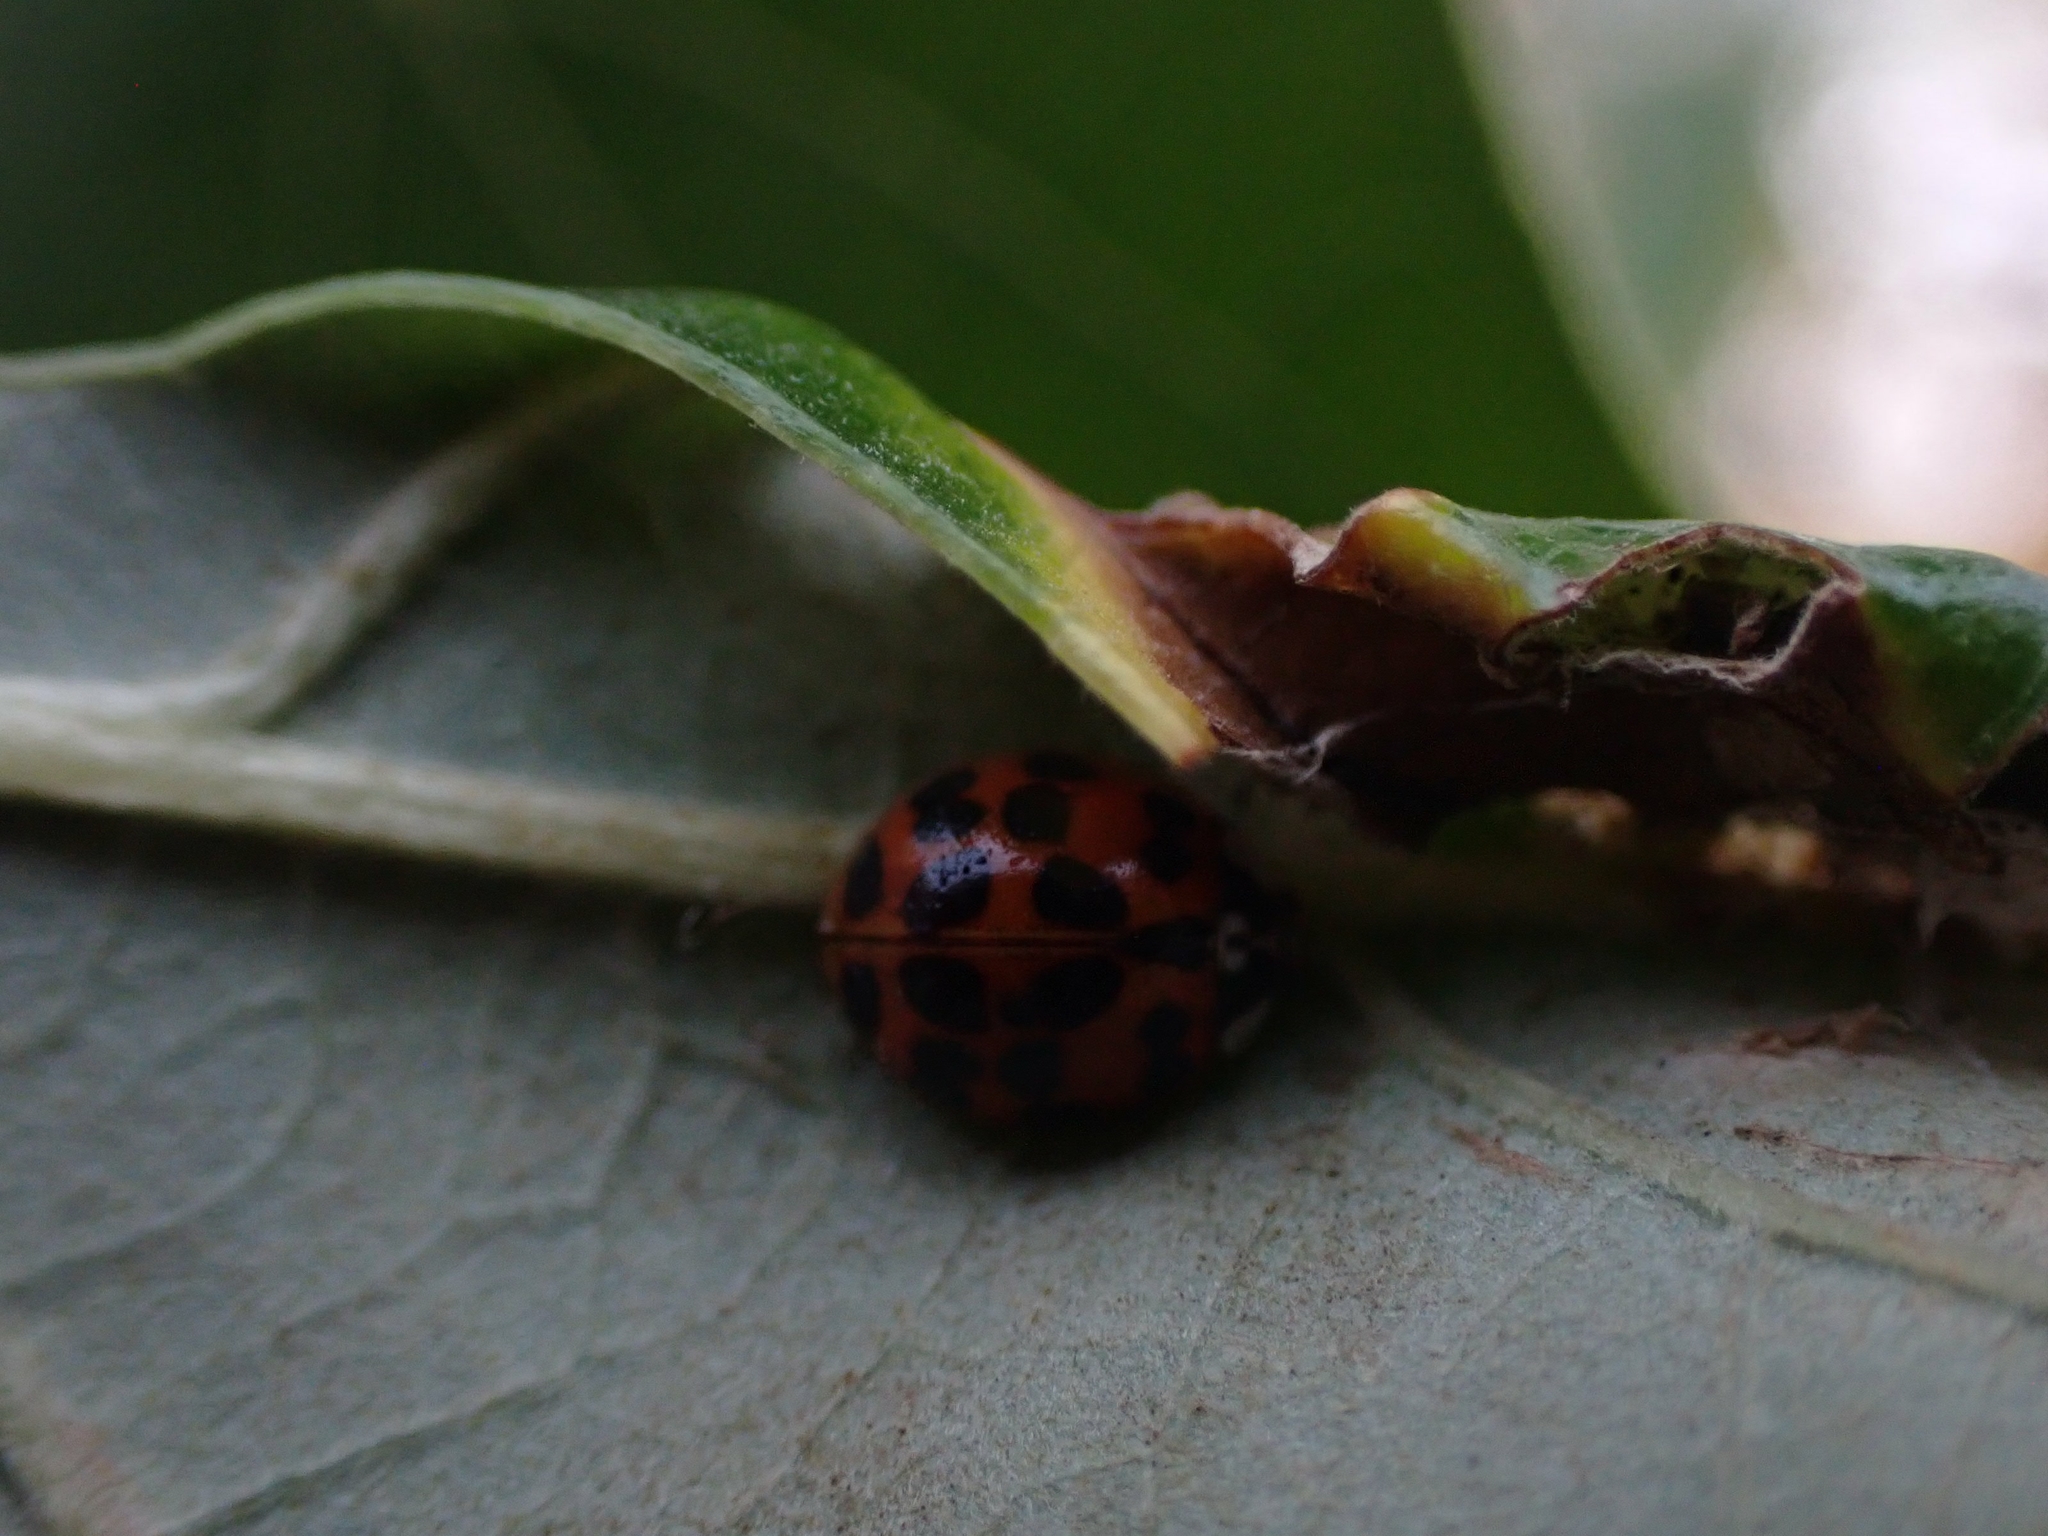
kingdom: Animalia
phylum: Arthropoda
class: Insecta
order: Coleoptera
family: Coccinellidae
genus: Harmonia
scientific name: Harmonia axyridis
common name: Harlequin ladybird
